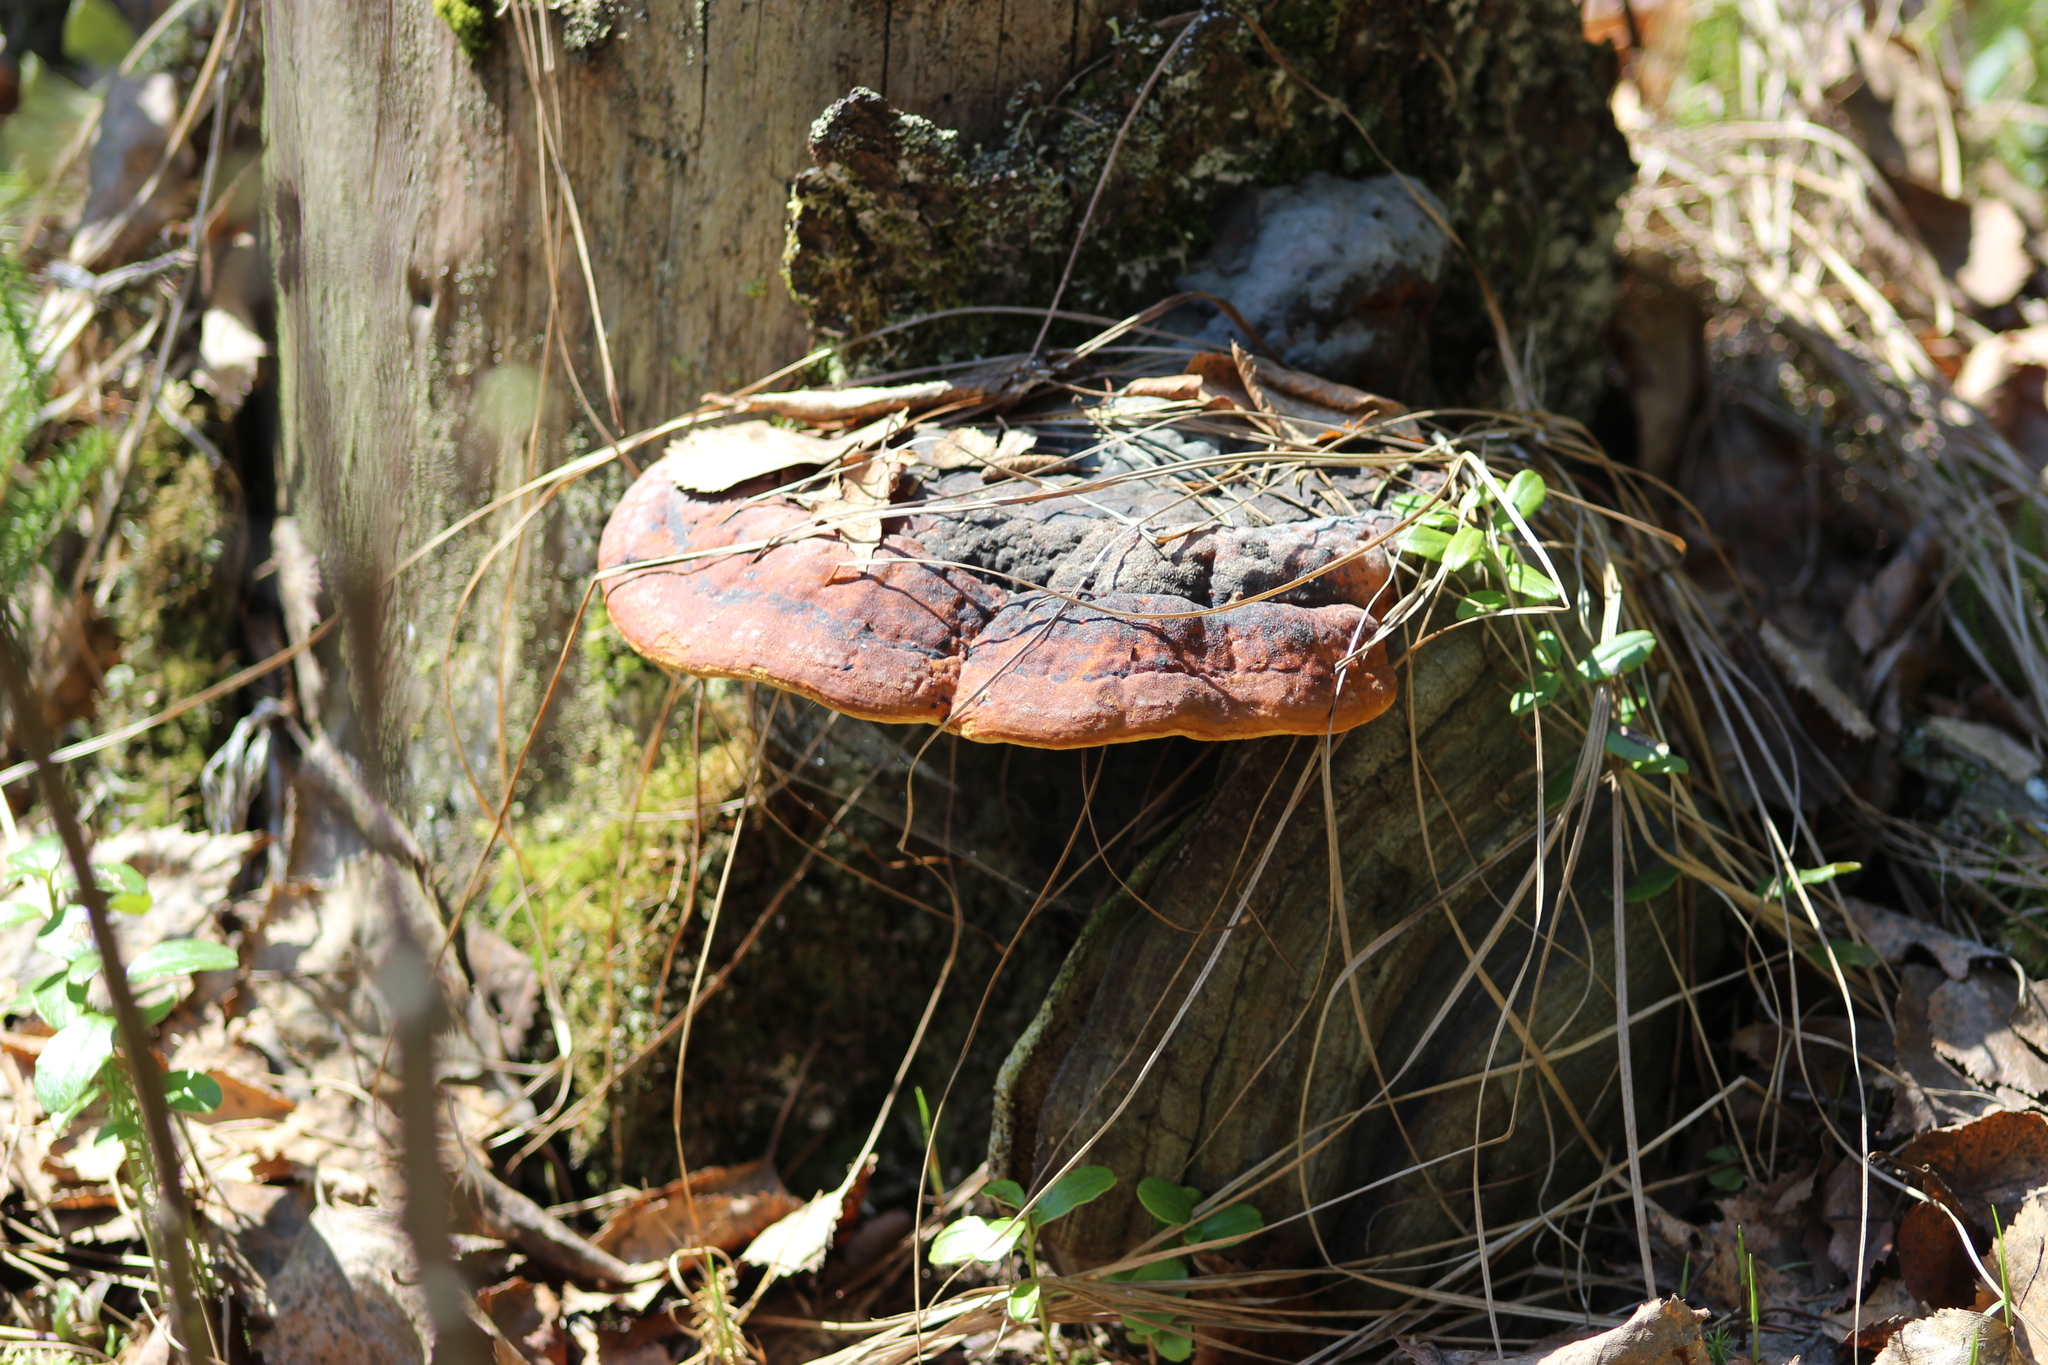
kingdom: Fungi
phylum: Basidiomycota
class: Agaricomycetes
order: Polyporales
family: Fomitopsidaceae
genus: Fomitopsis
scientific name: Fomitopsis pinicola
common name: Red-belted bracket
